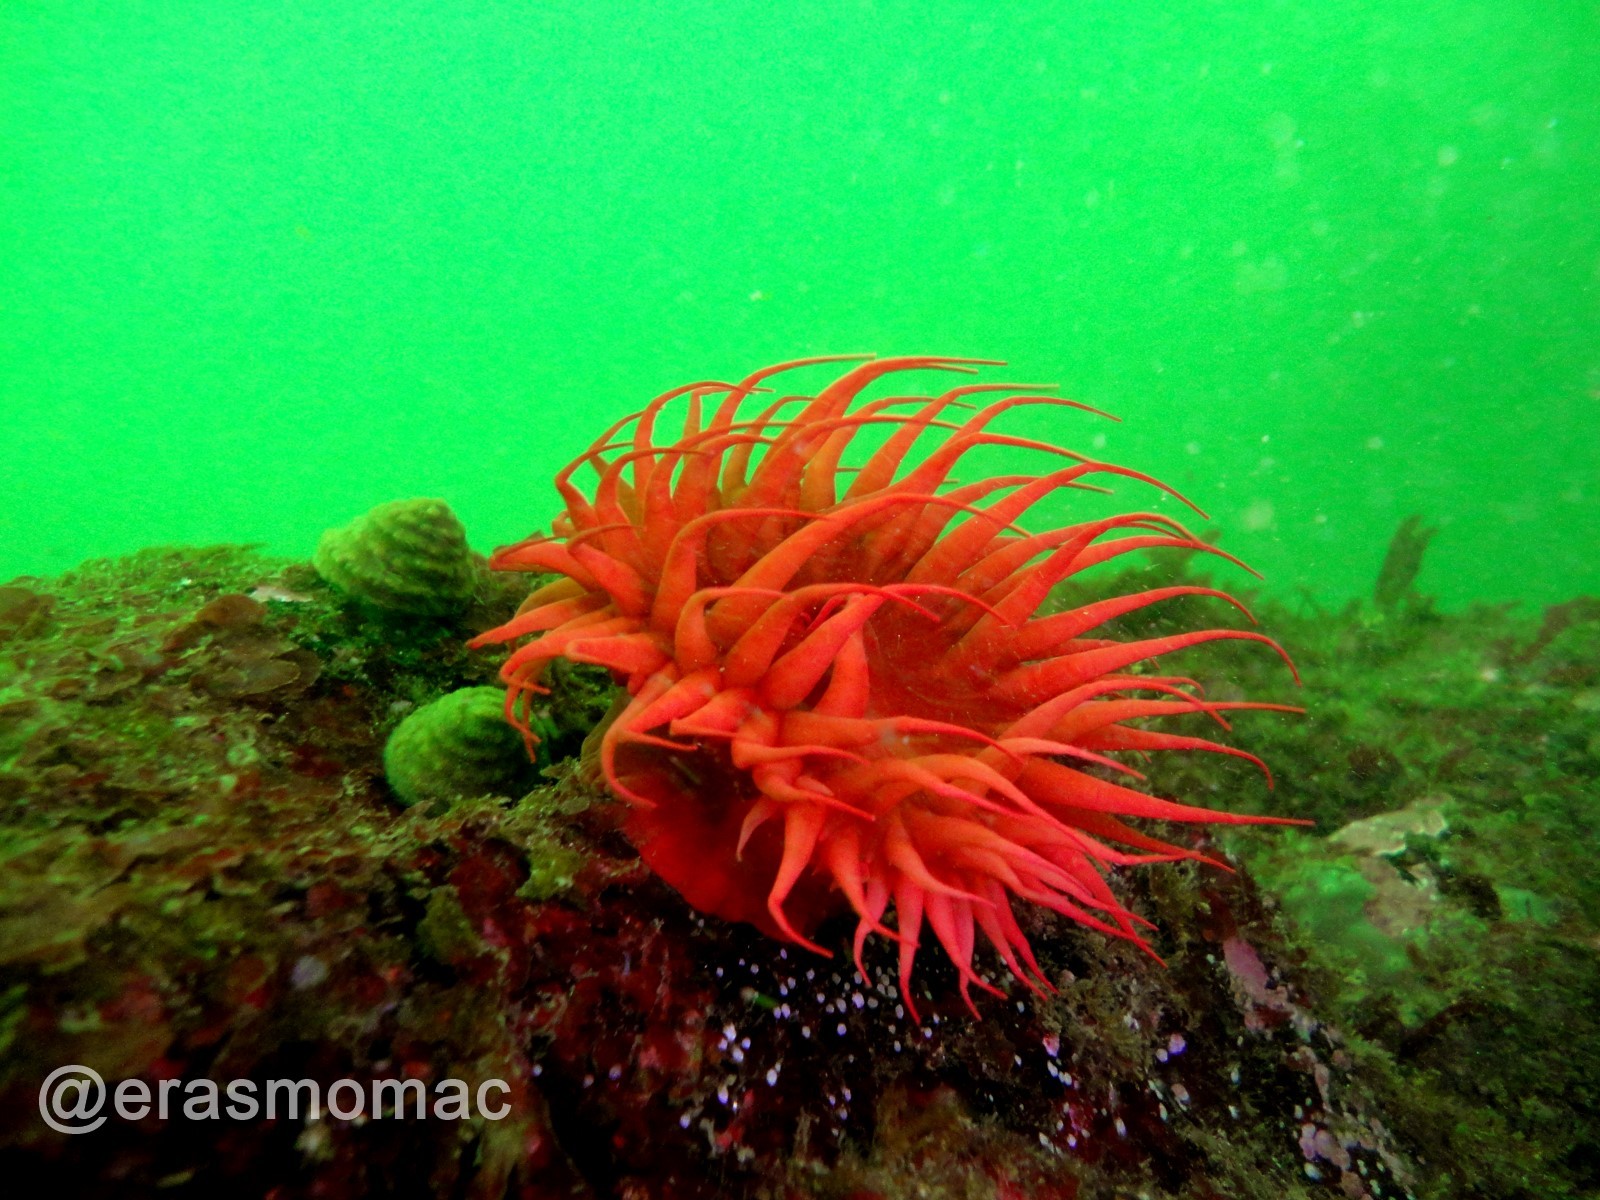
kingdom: Animalia
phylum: Cnidaria
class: Anthozoa
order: Actiniaria
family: Actiniidae
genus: Anemonia
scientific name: Anemonia alicemartinae
